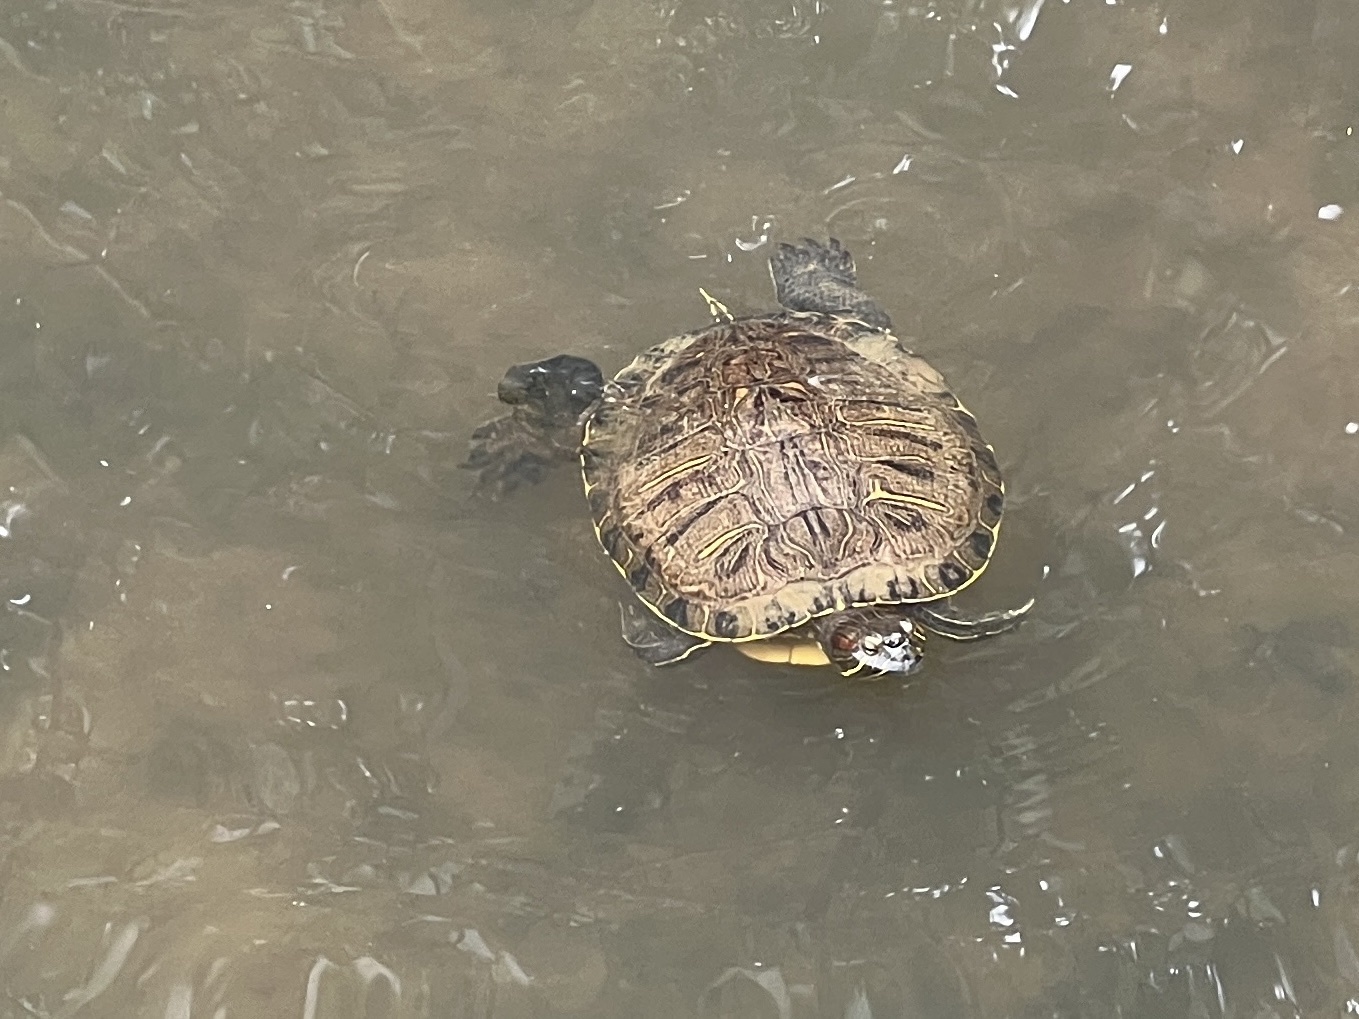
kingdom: Animalia
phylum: Chordata
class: Testudines
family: Emydidae
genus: Trachemys
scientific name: Trachemys scripta
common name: Slider
